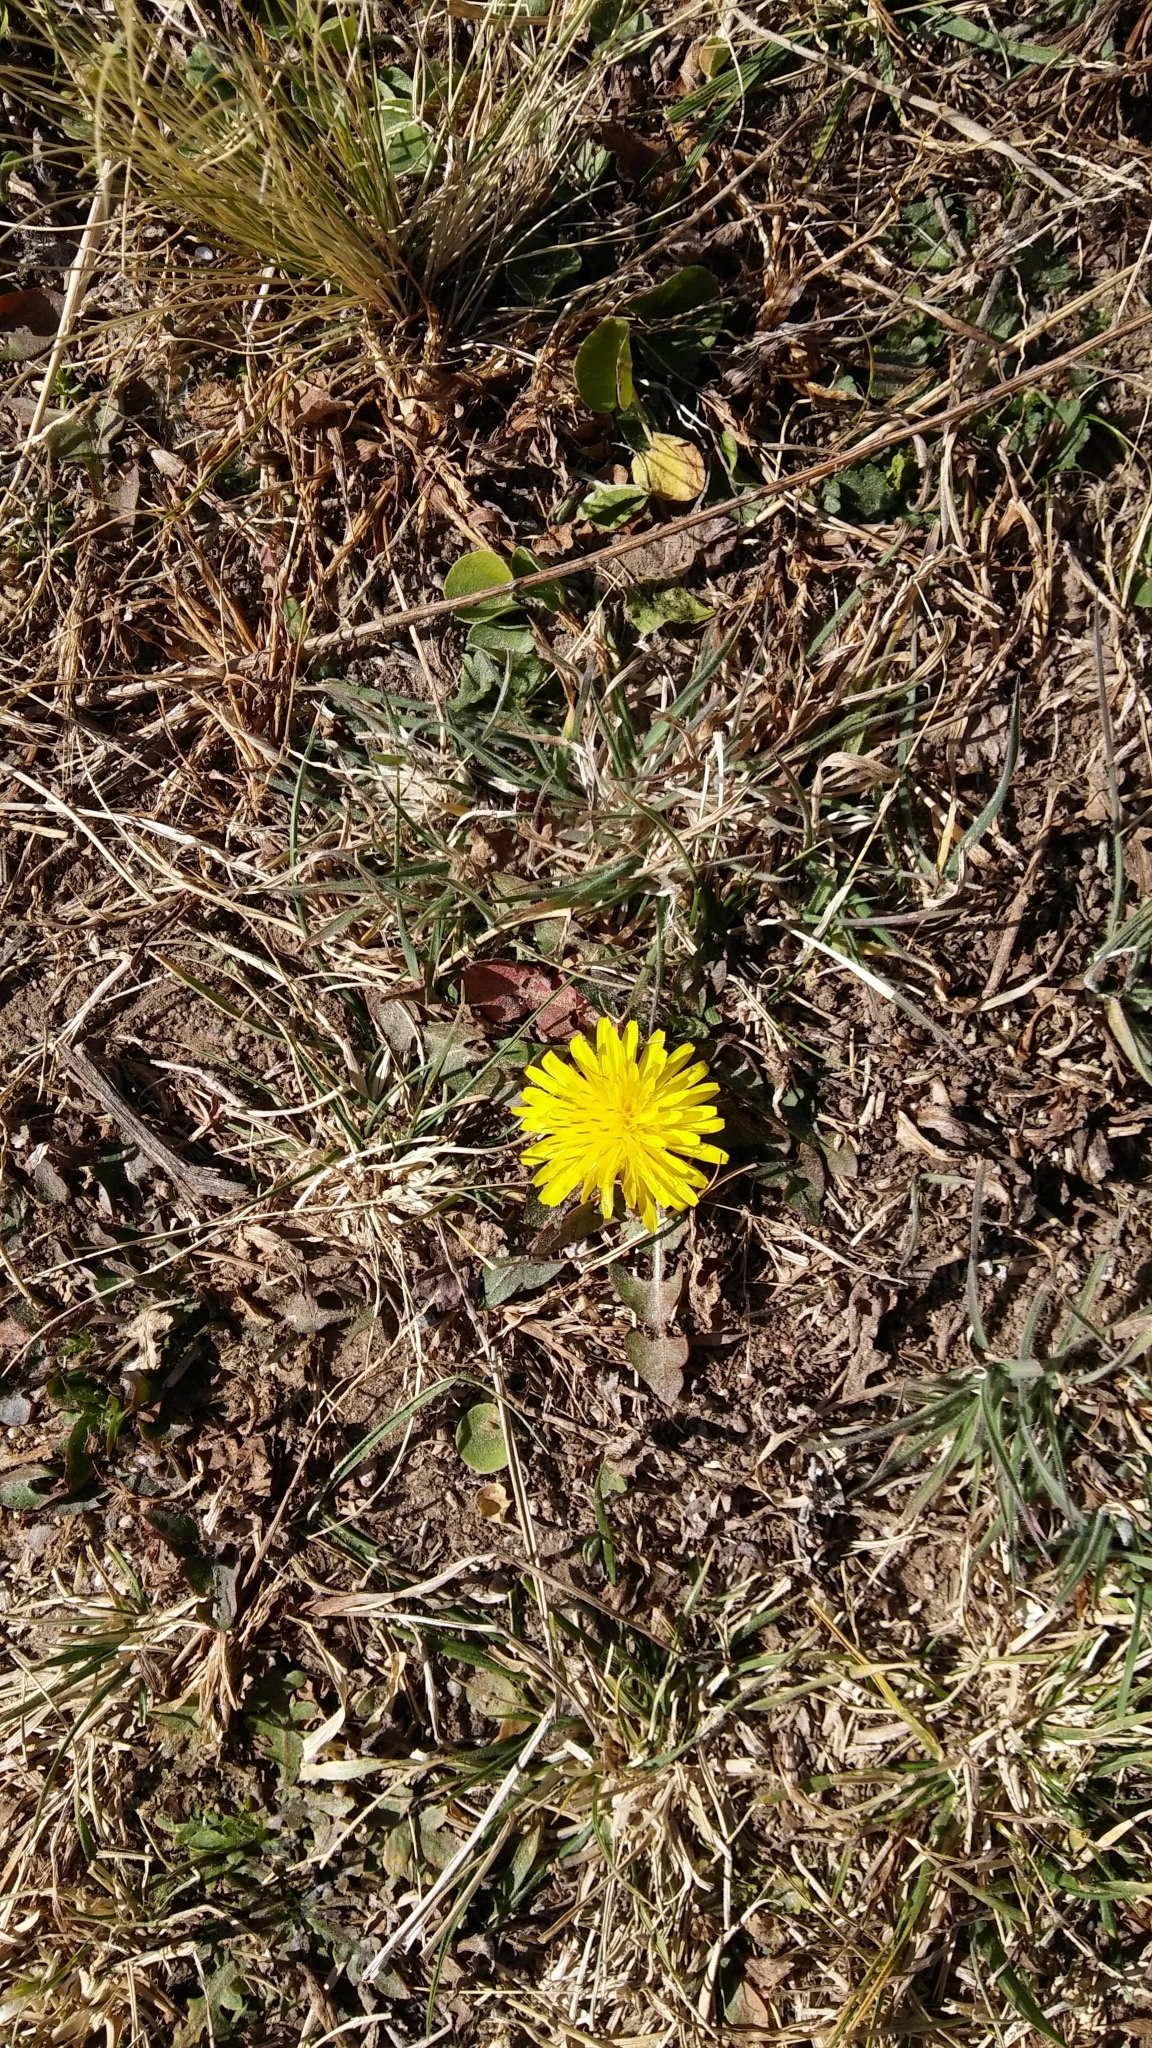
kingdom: Plantae
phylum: Tracheophyta
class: Magnoliopsida
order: Asterales
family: Asteraceae
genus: Taraxacum
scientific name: Taraxacum officinale
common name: Common dandelion
